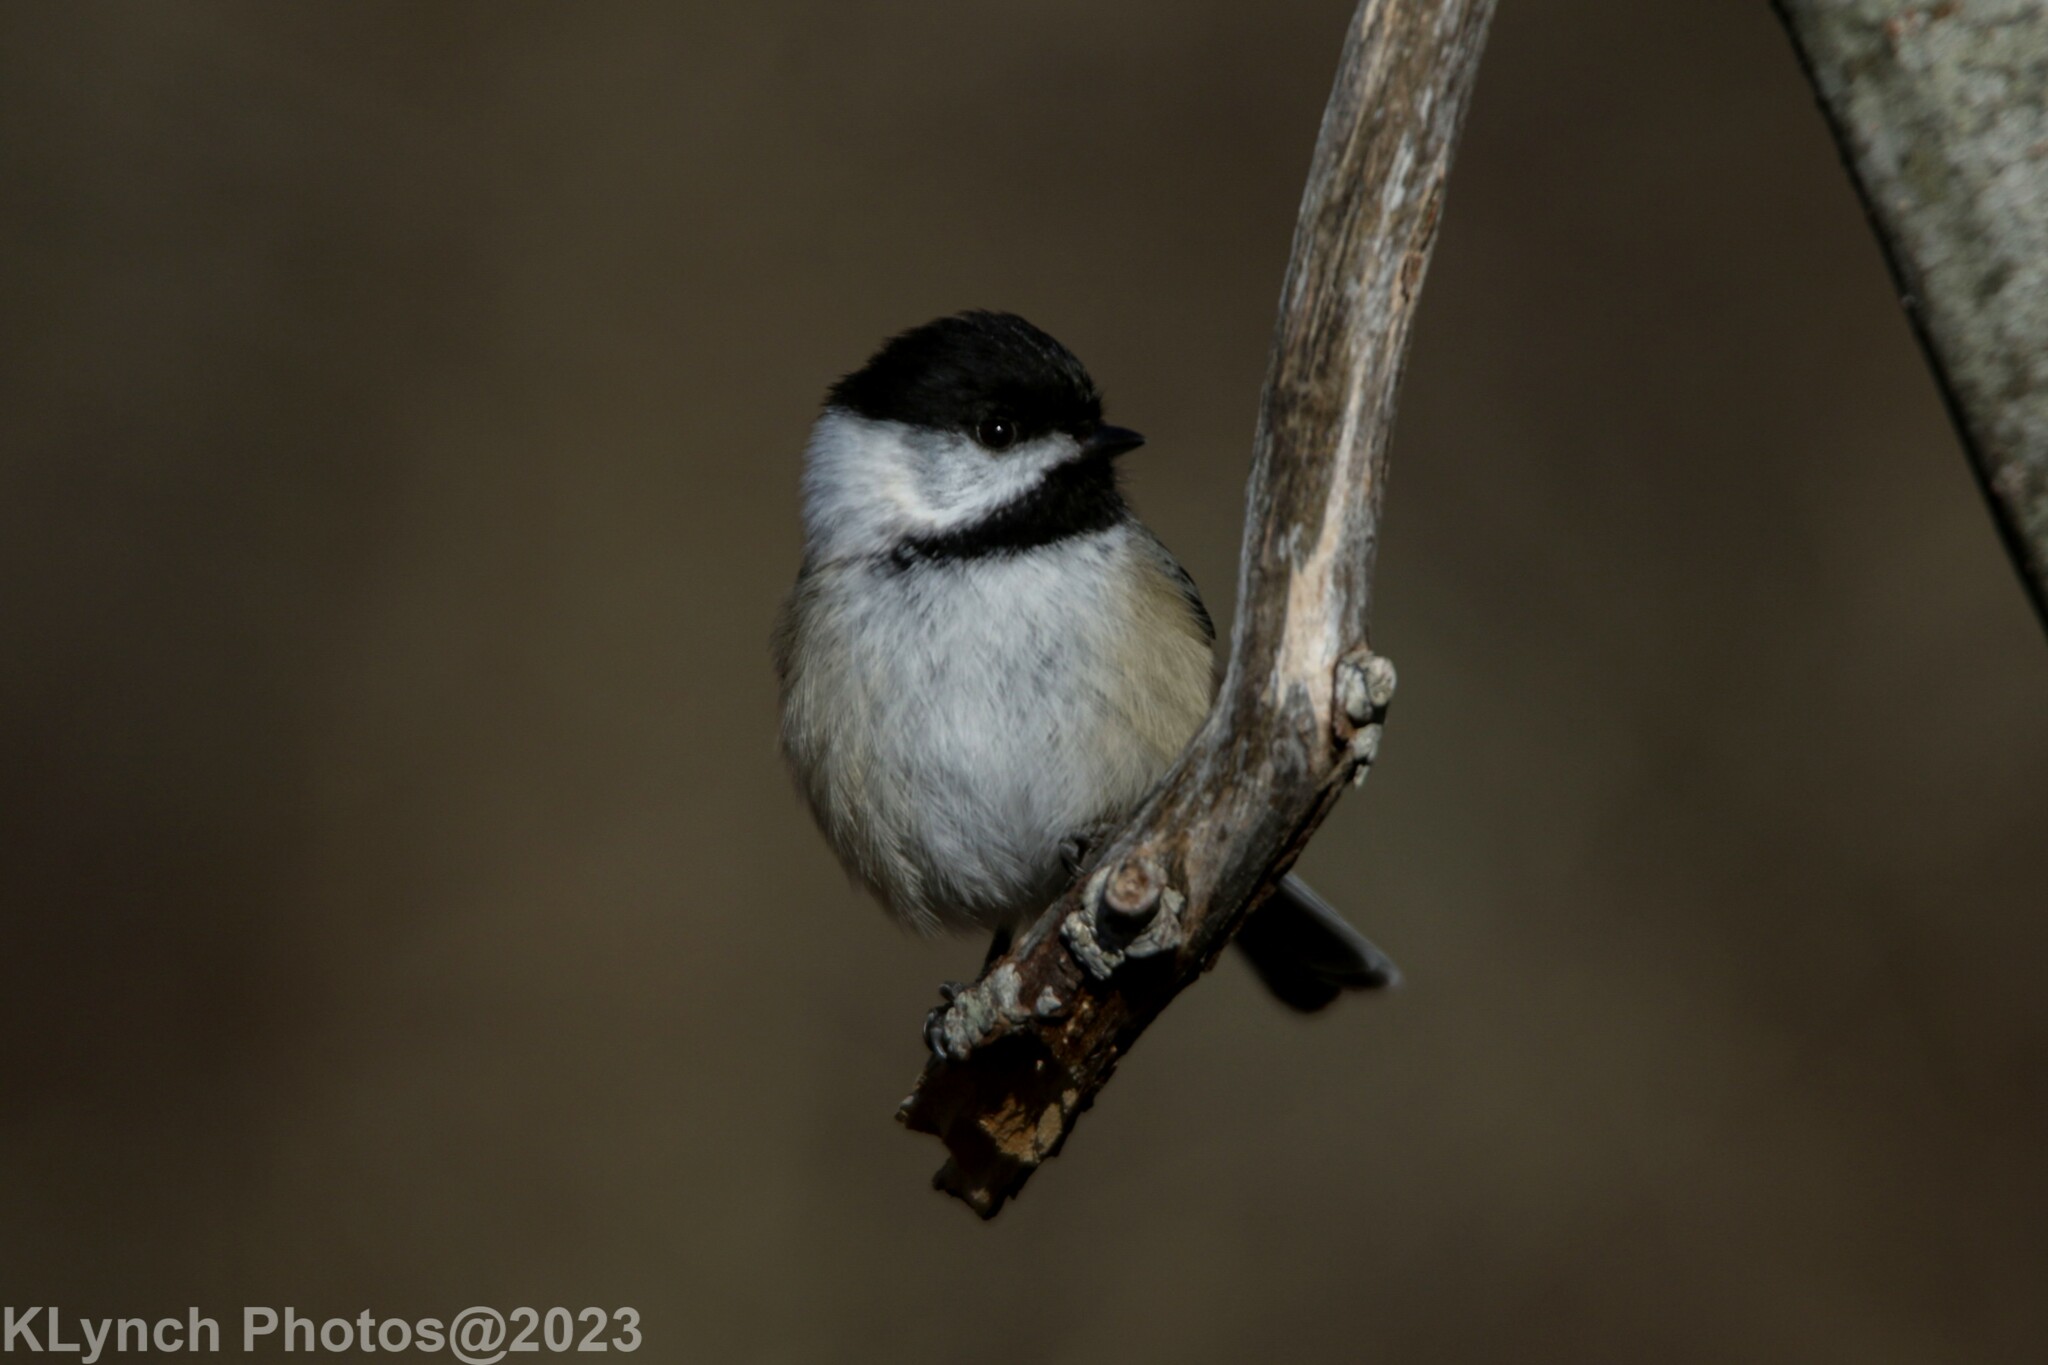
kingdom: Animalia
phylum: Chordata
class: Aves
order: Passeriformes
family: Paridae
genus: Poecile
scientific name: Poecile atricapillus
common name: Black-capped chickadee
